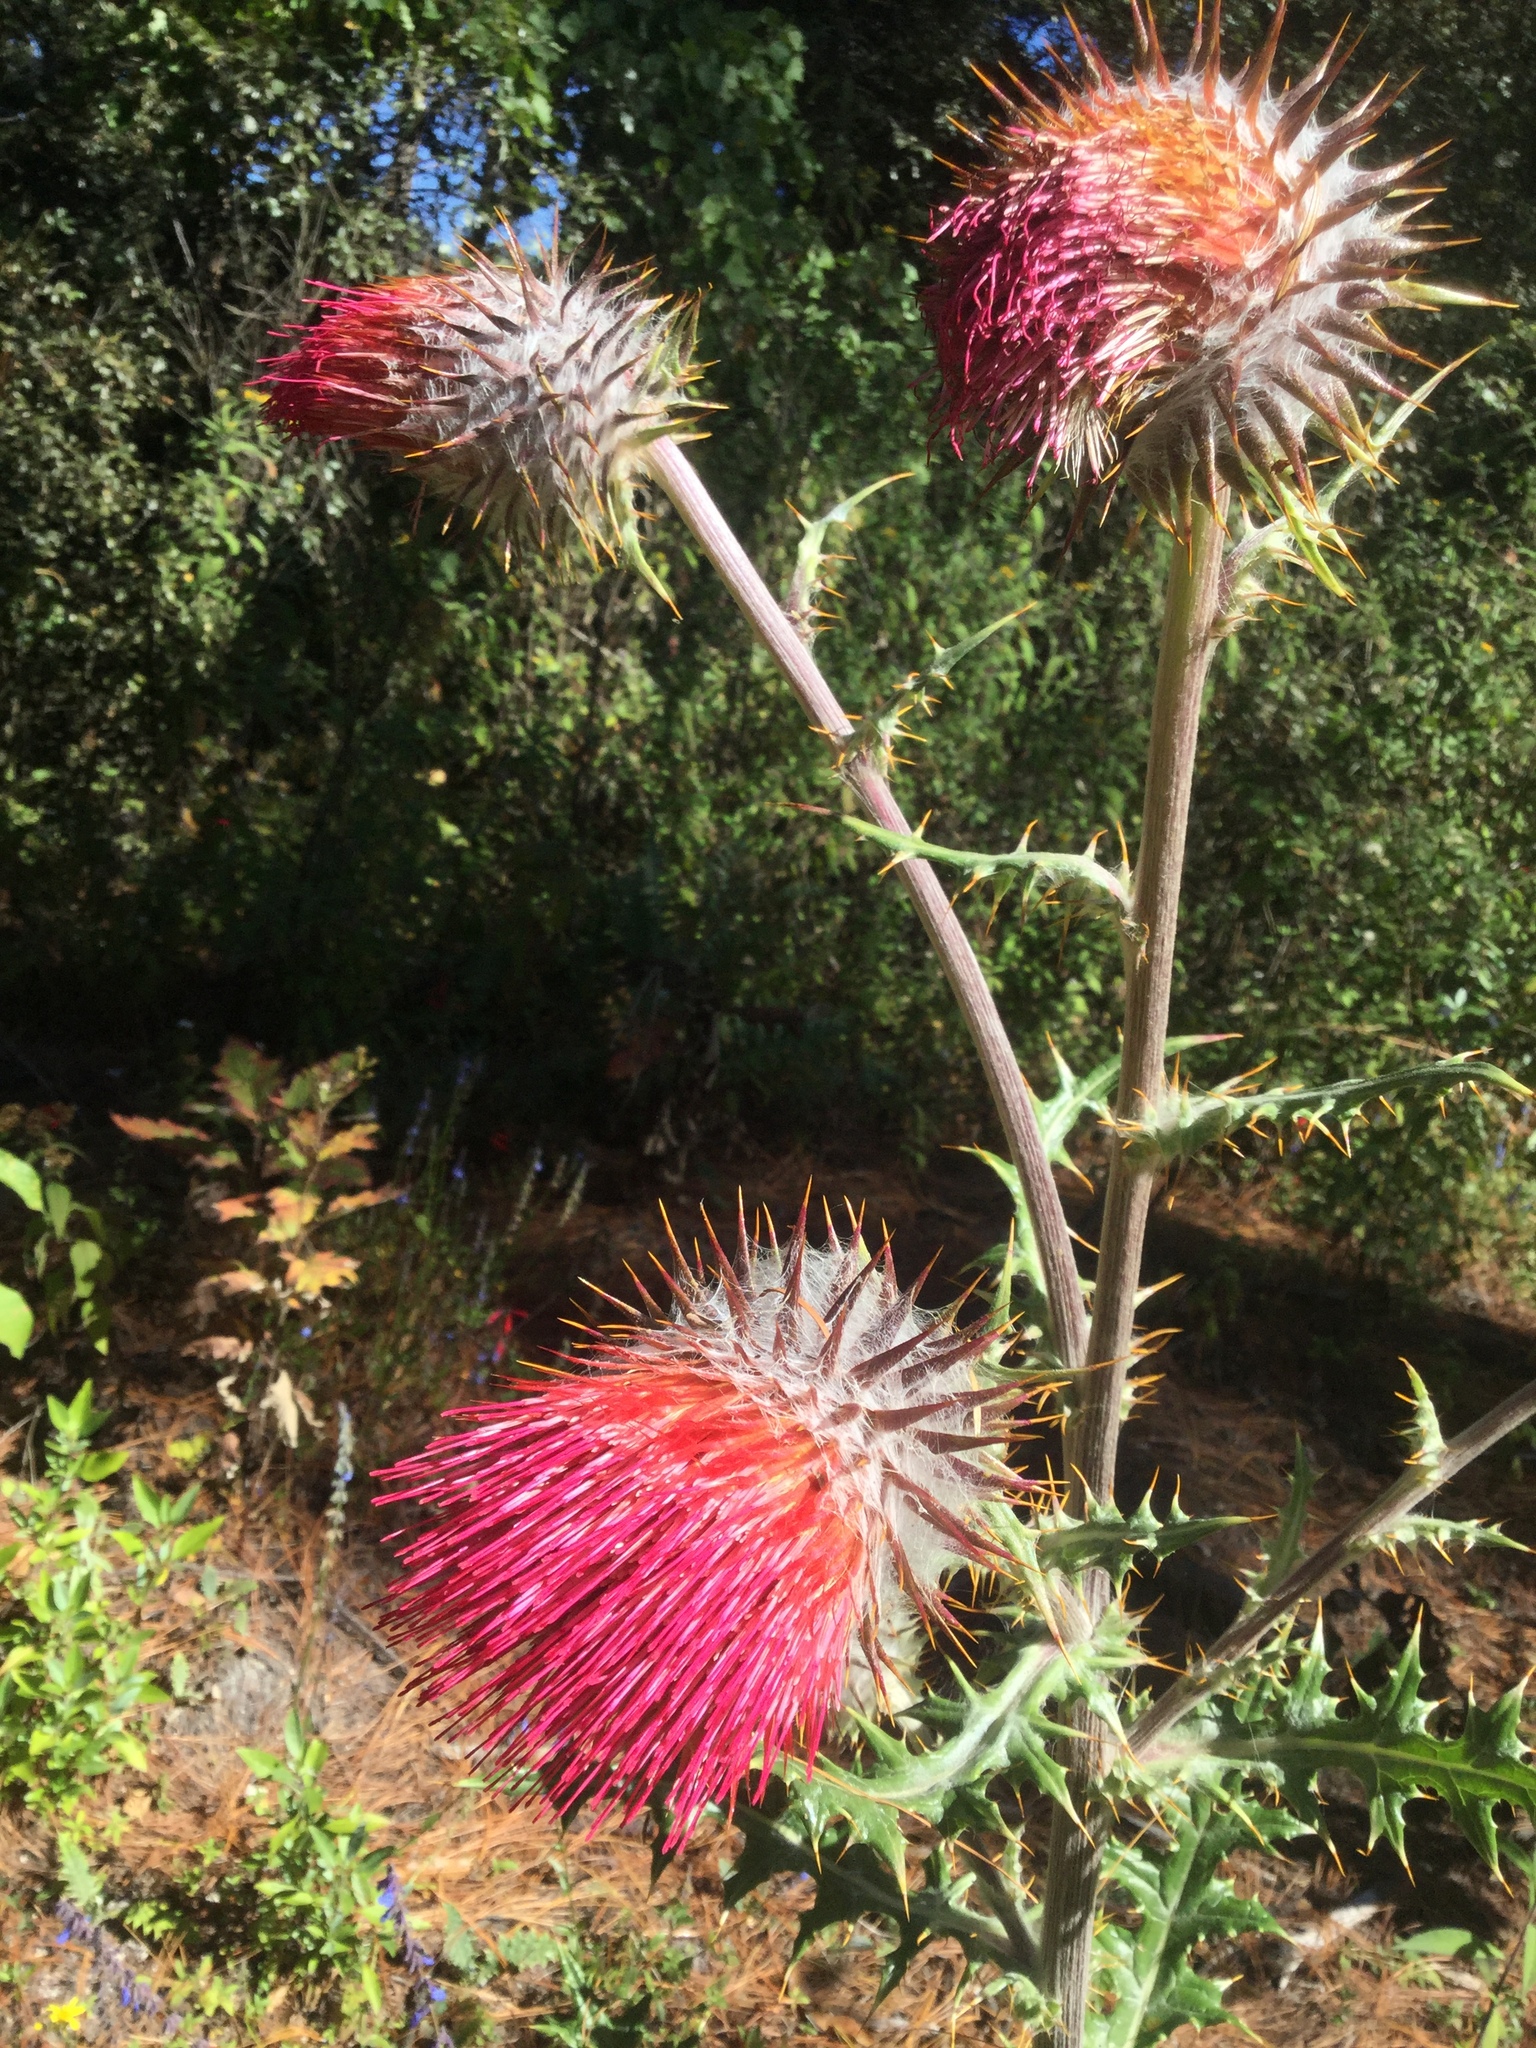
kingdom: Plantae
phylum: Tracheophyta
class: Magnoliopsida
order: Asterales
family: Asteraceae
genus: Cirsium
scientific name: Cirsium ehrenbergii
